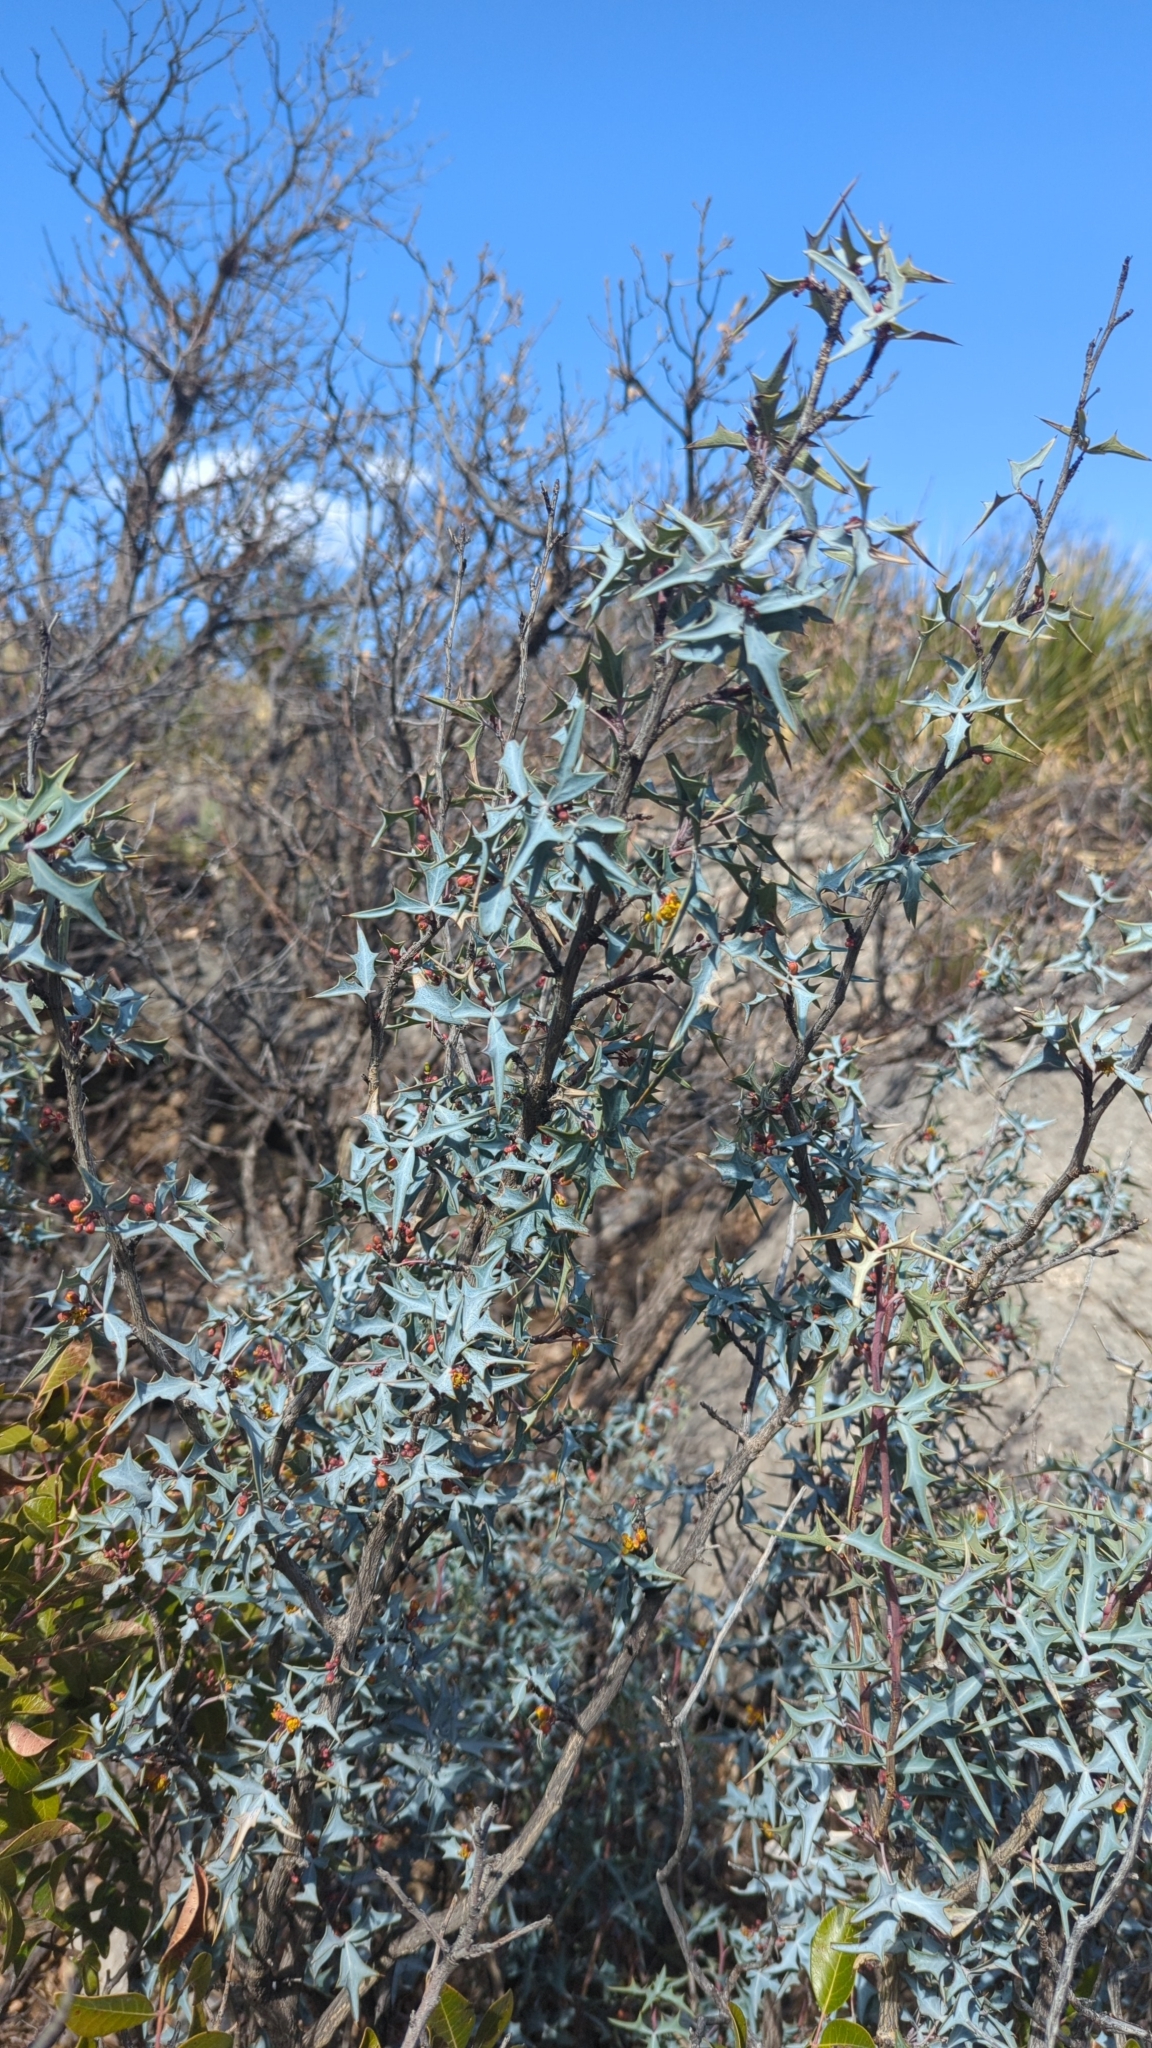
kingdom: Plantae
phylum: Tracheophyta
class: Magnoliopsida
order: Ranunculales
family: Berberidaceae
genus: Alloberberis
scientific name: Alloberberis trifoliolata
